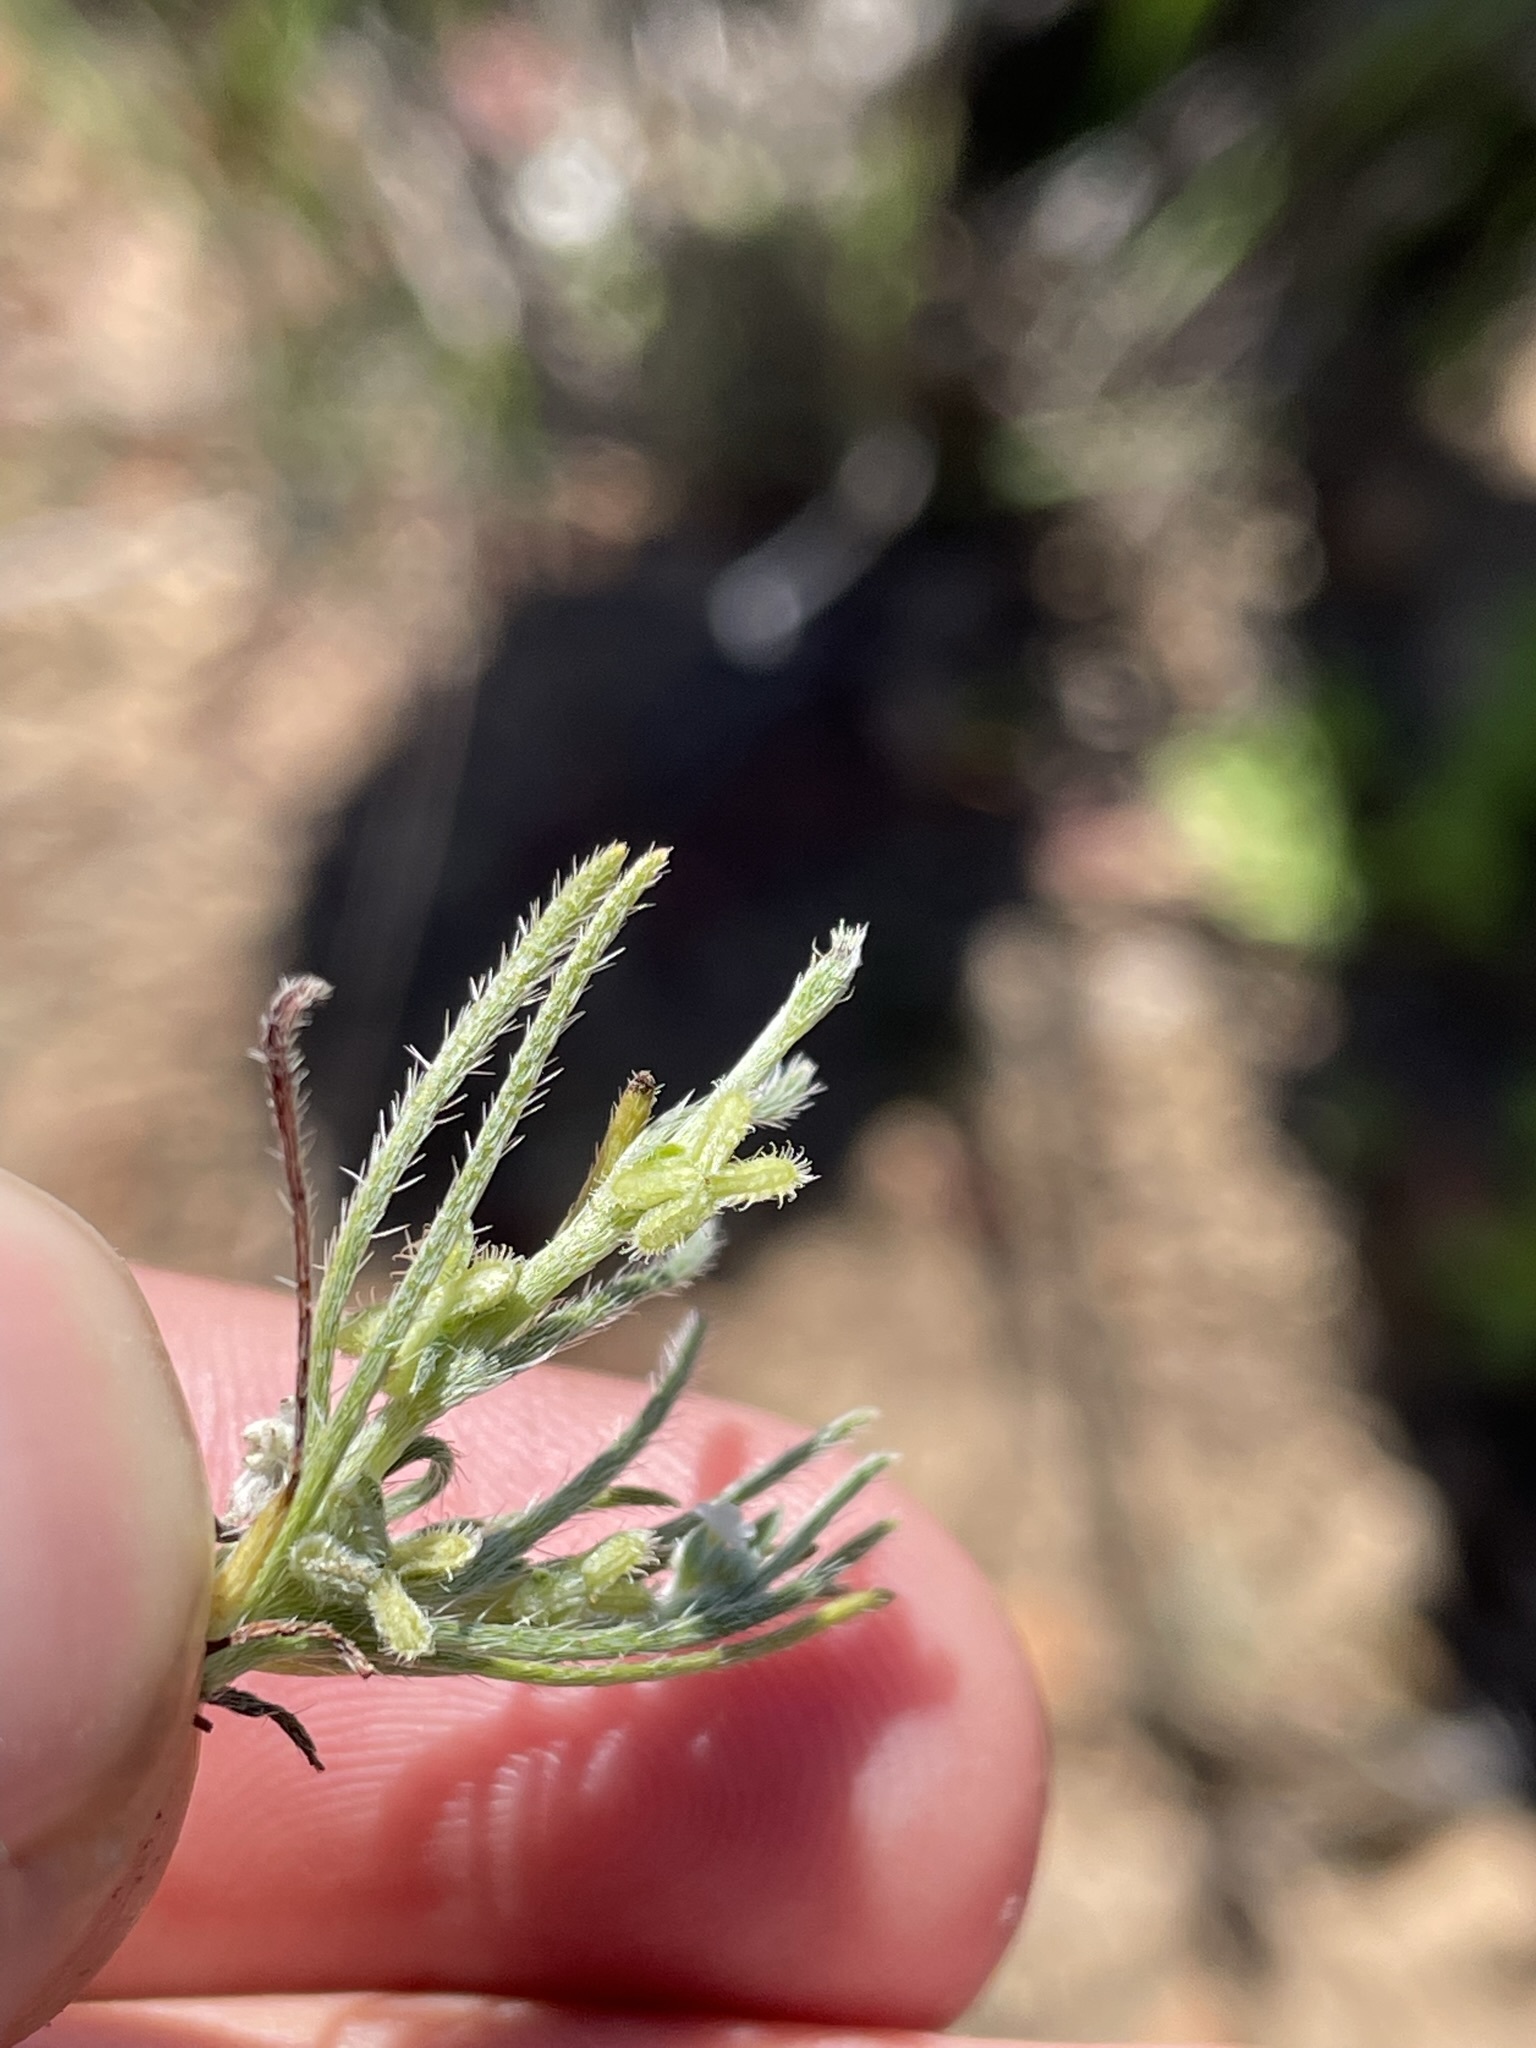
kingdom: Plantae
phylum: Tracheophyta
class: Magnoliopsida
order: Boraginales
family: Boraginaceae
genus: Pectocarya
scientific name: Pectocarya linearis
